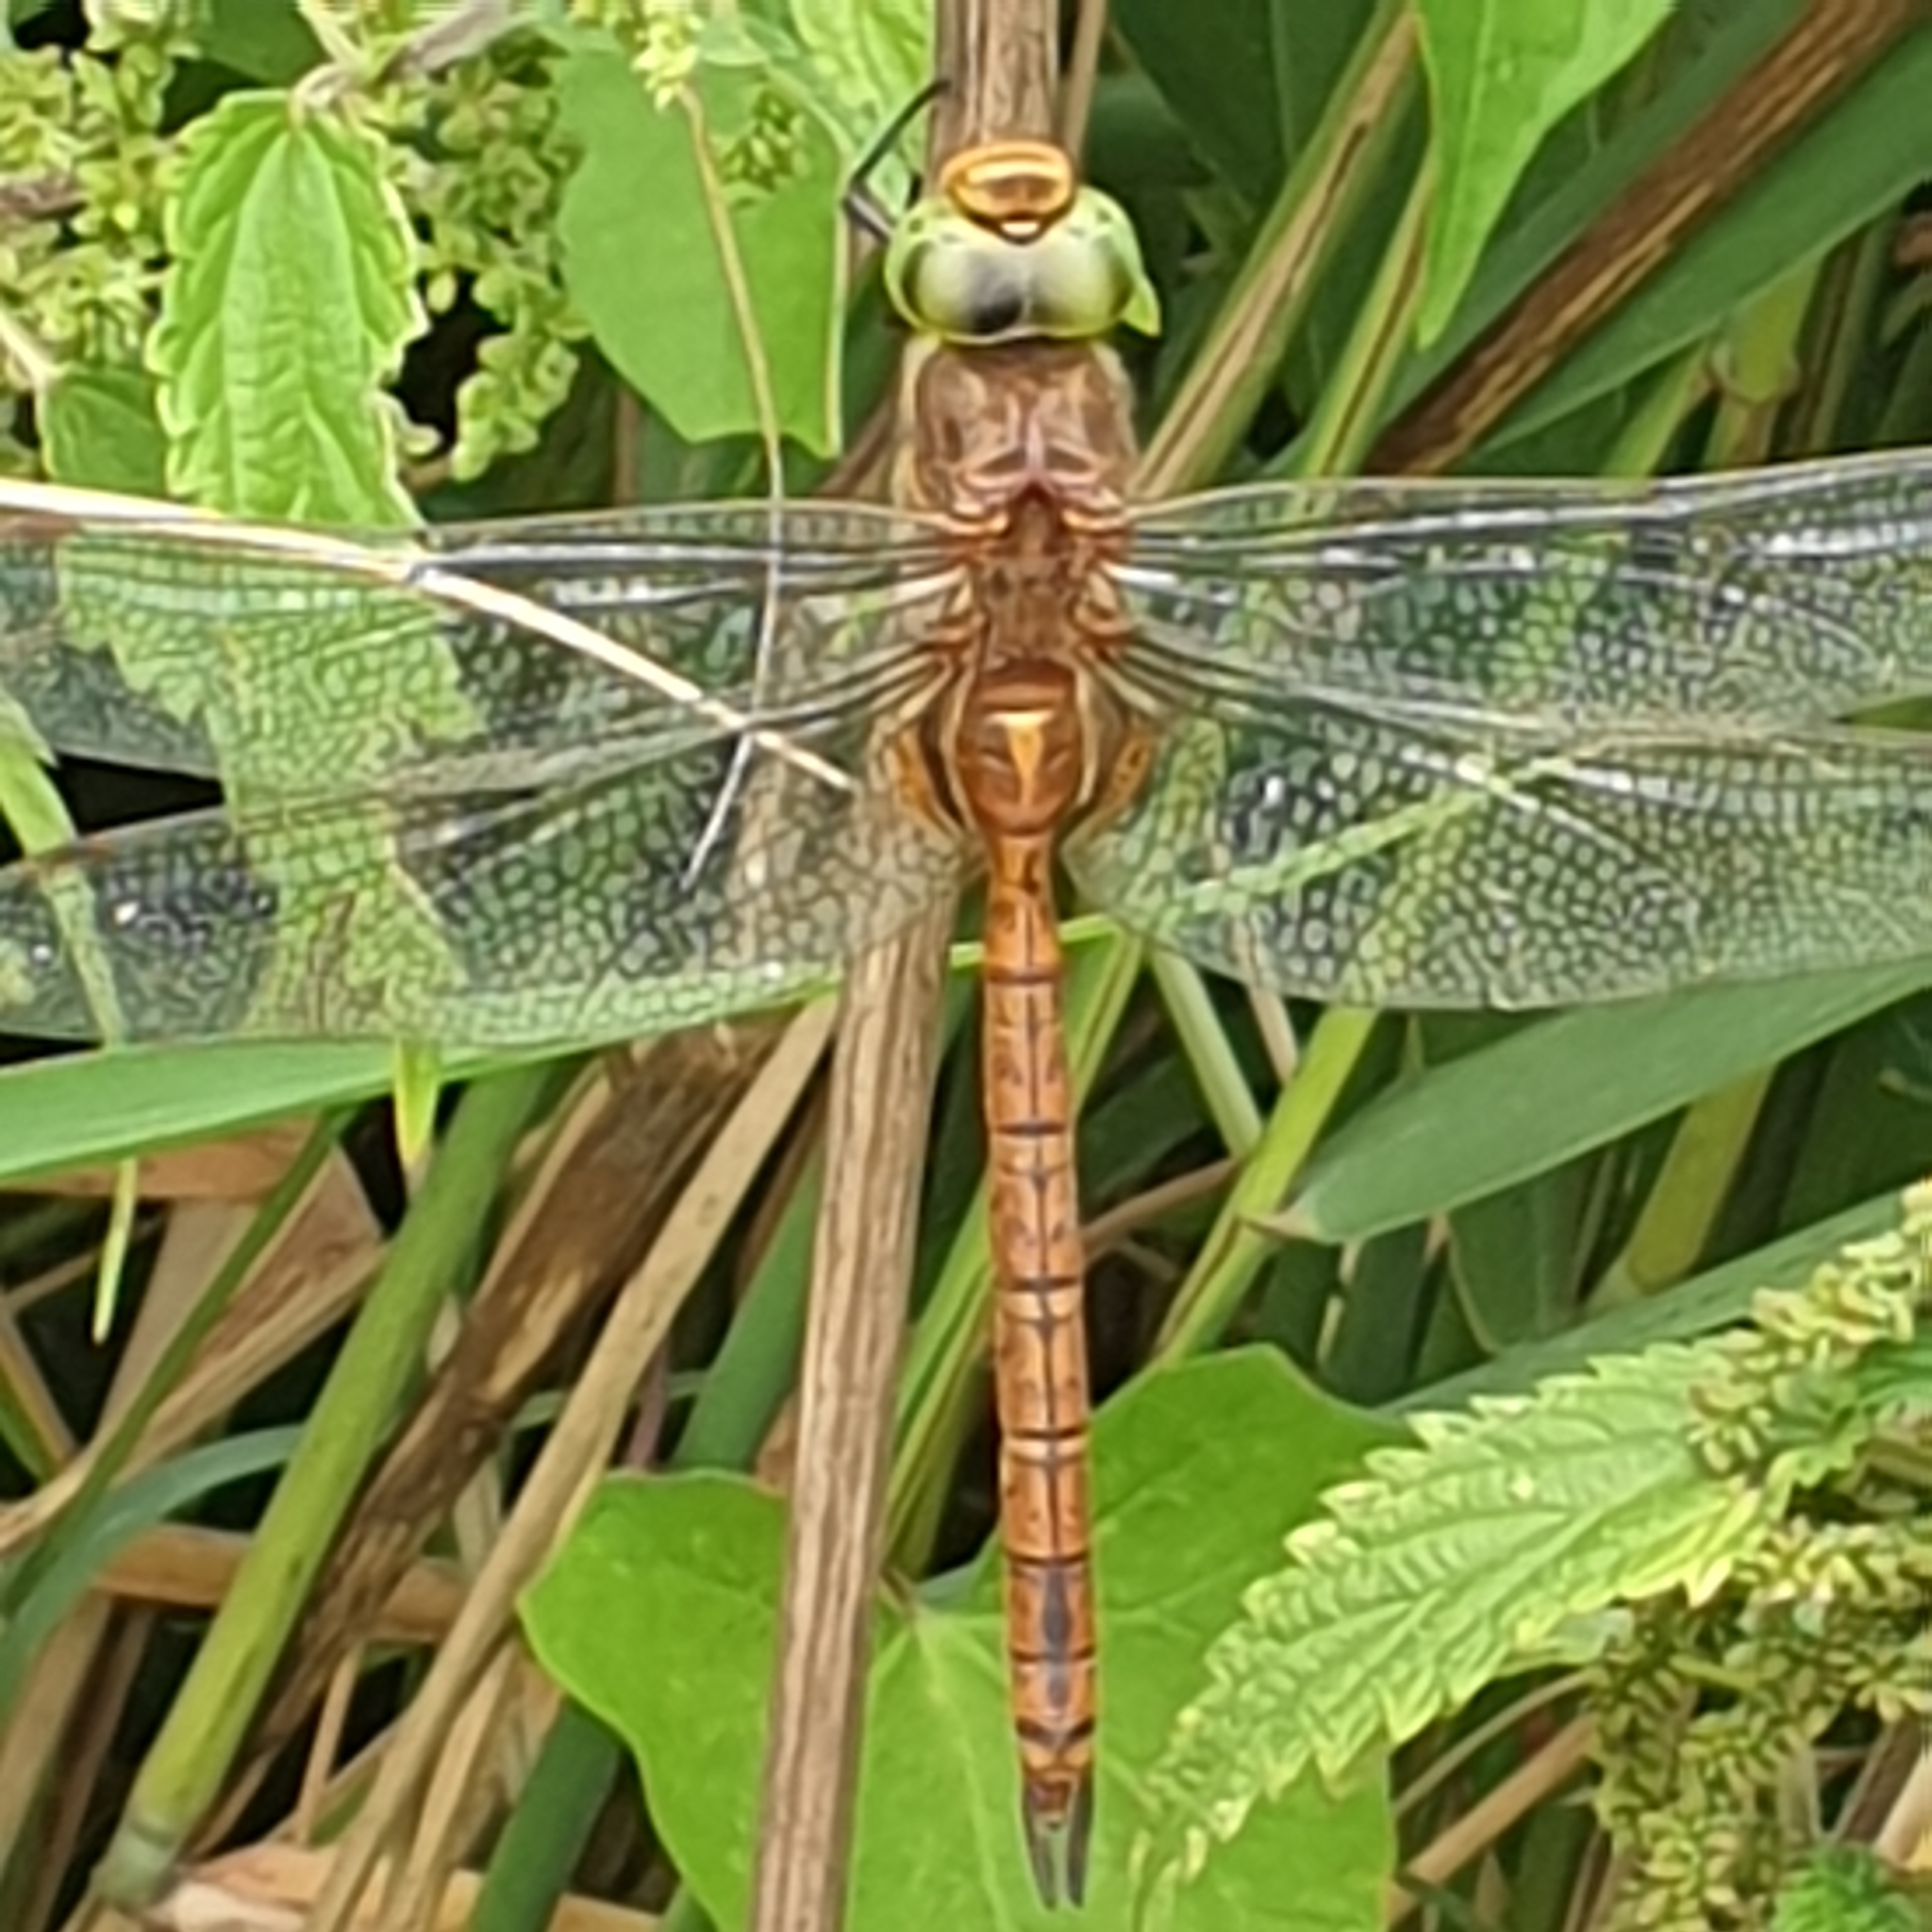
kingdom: Animalia
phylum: Arthropoda
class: Insecta
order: Odonata
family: Aeshnidae
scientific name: Aeshnidae
